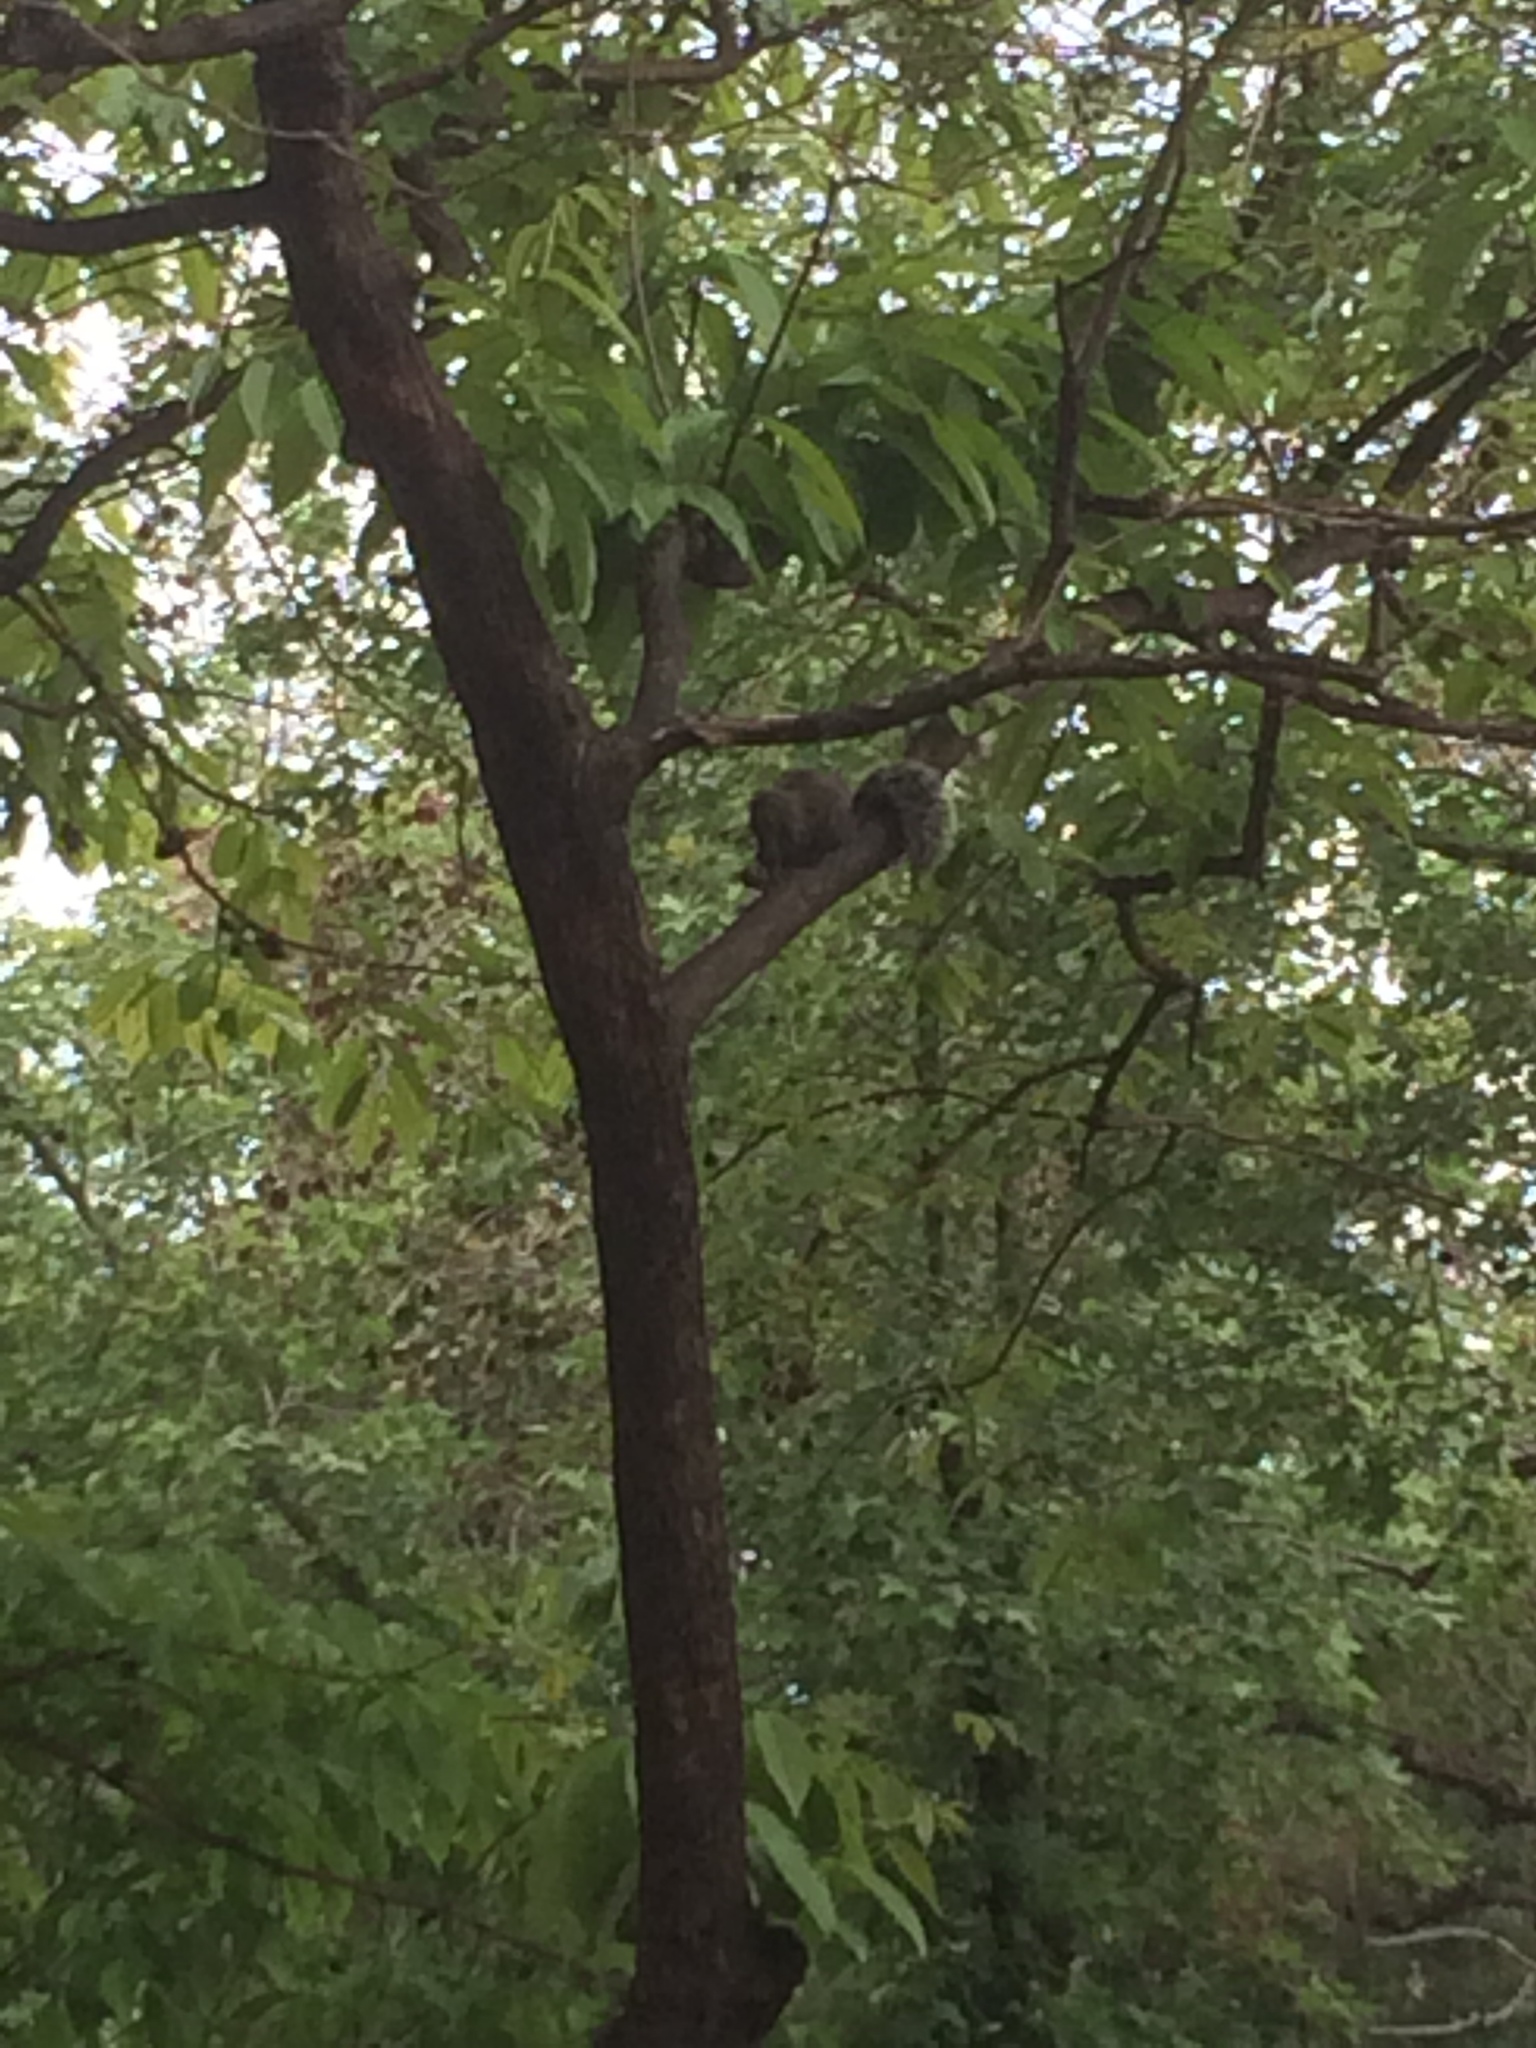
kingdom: Animalia
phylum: Chordata
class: Mammalia
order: Rodentia
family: Sciuridae
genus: Callosciurus
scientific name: Callosciurus erythraeus
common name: Pallas's squirrel
